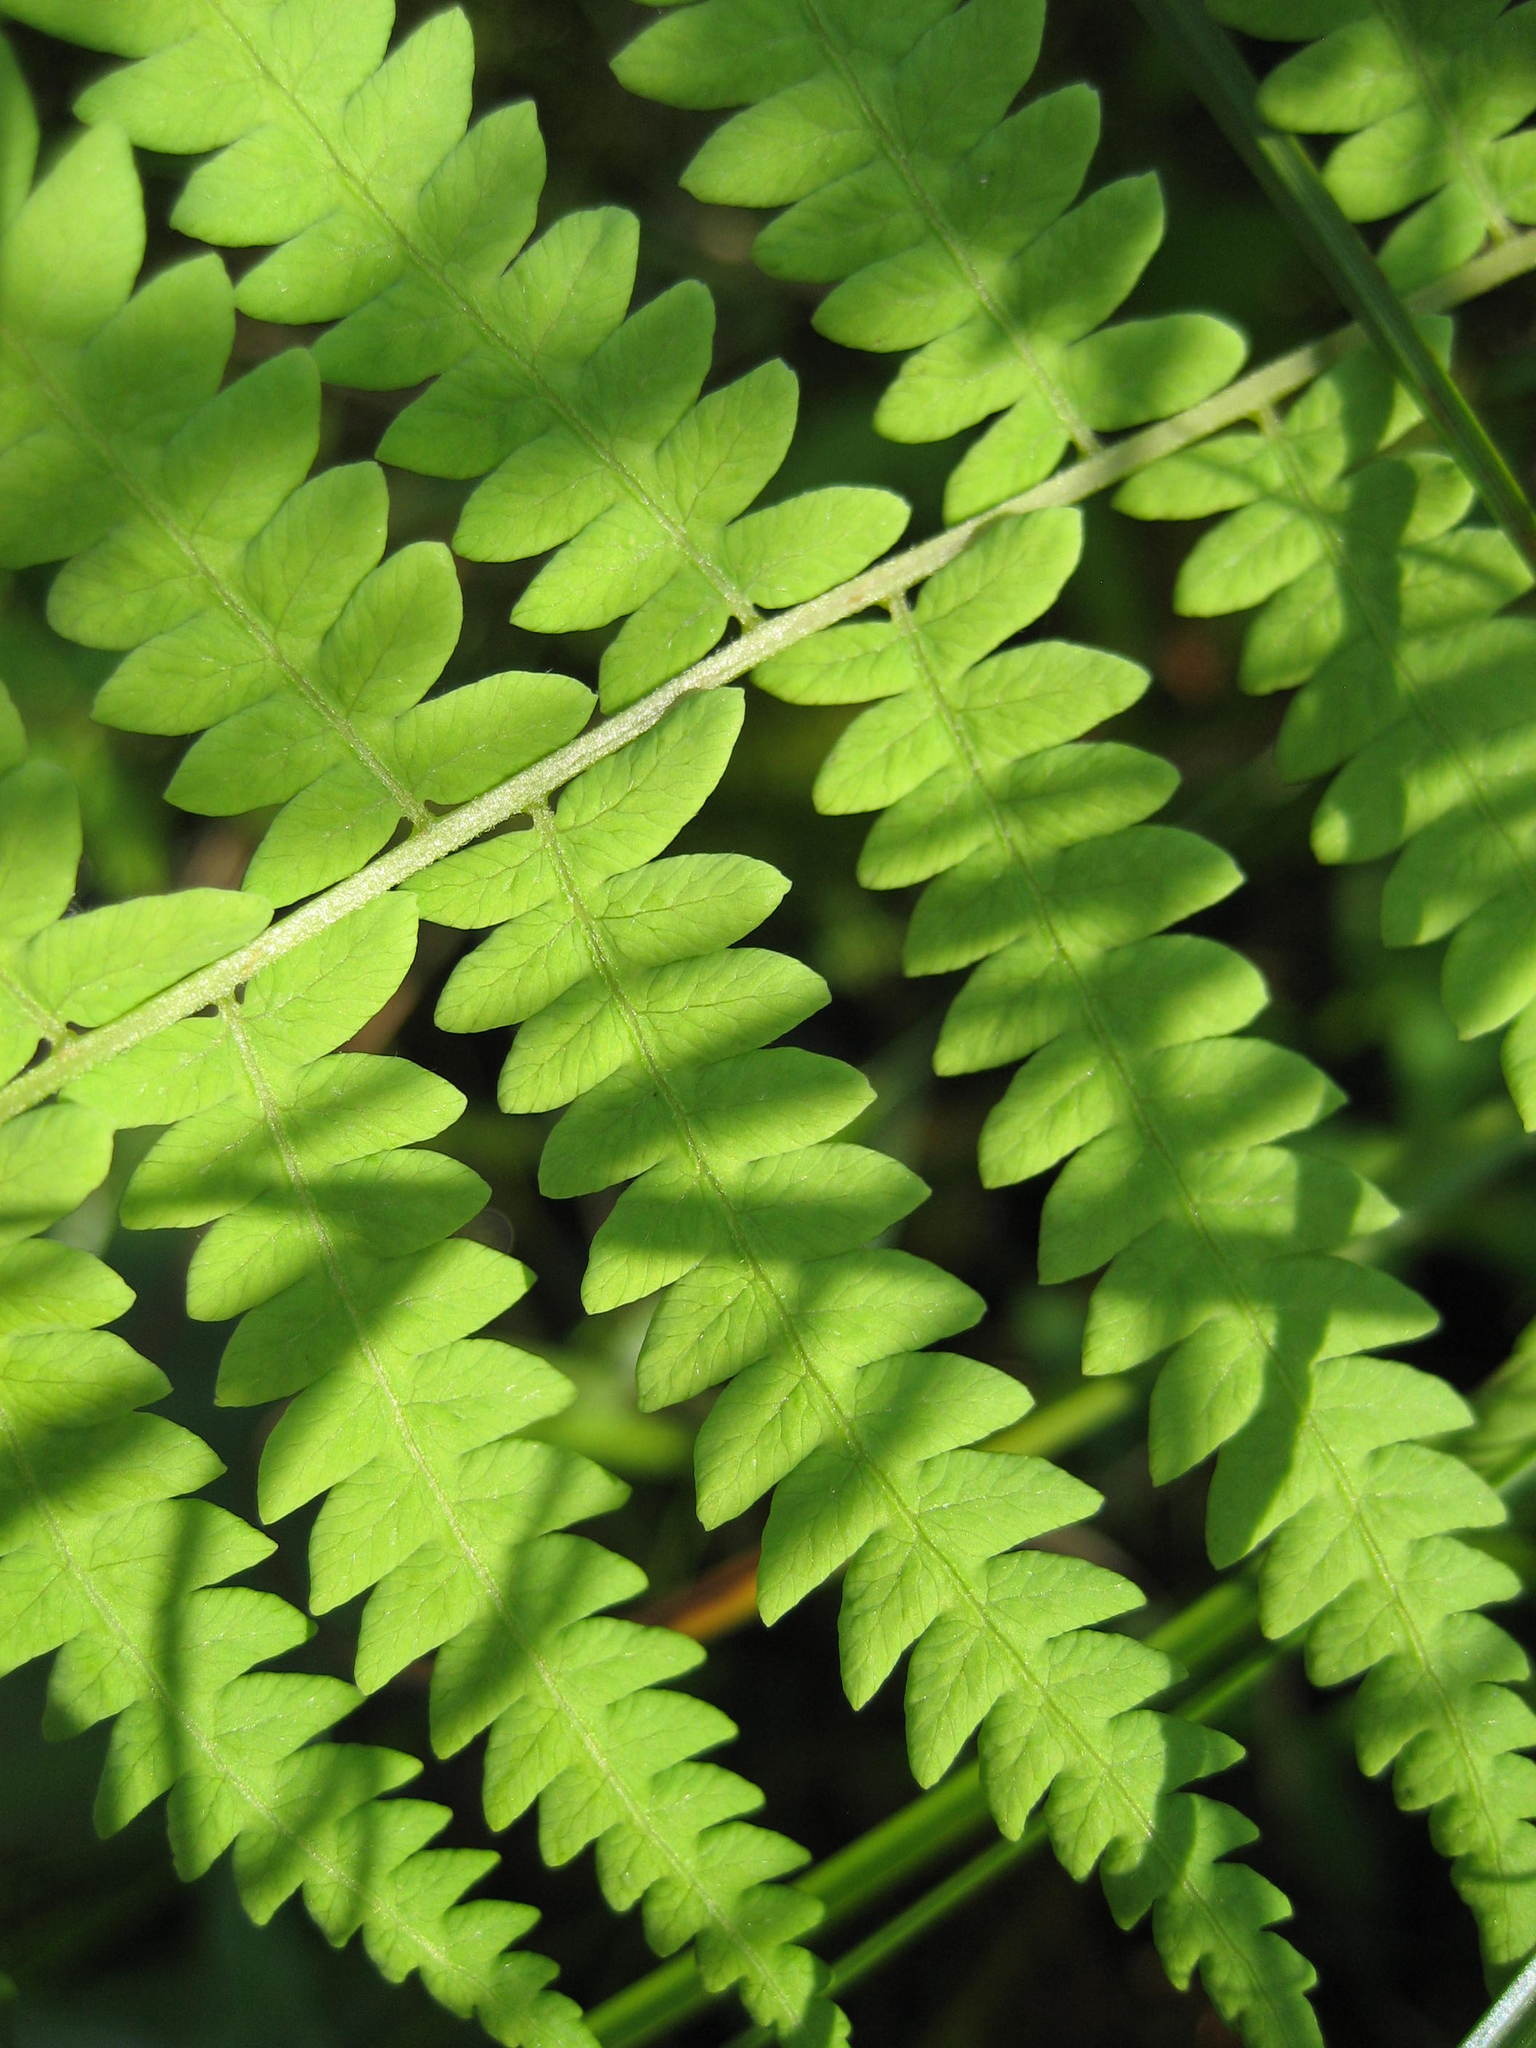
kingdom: Plantae
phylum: Tracheophyta
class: Polypodiopsida
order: Polypodiales
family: Thelypteridaceae
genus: Thelypteris
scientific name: Thelypteris palustris
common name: Marsh fern
